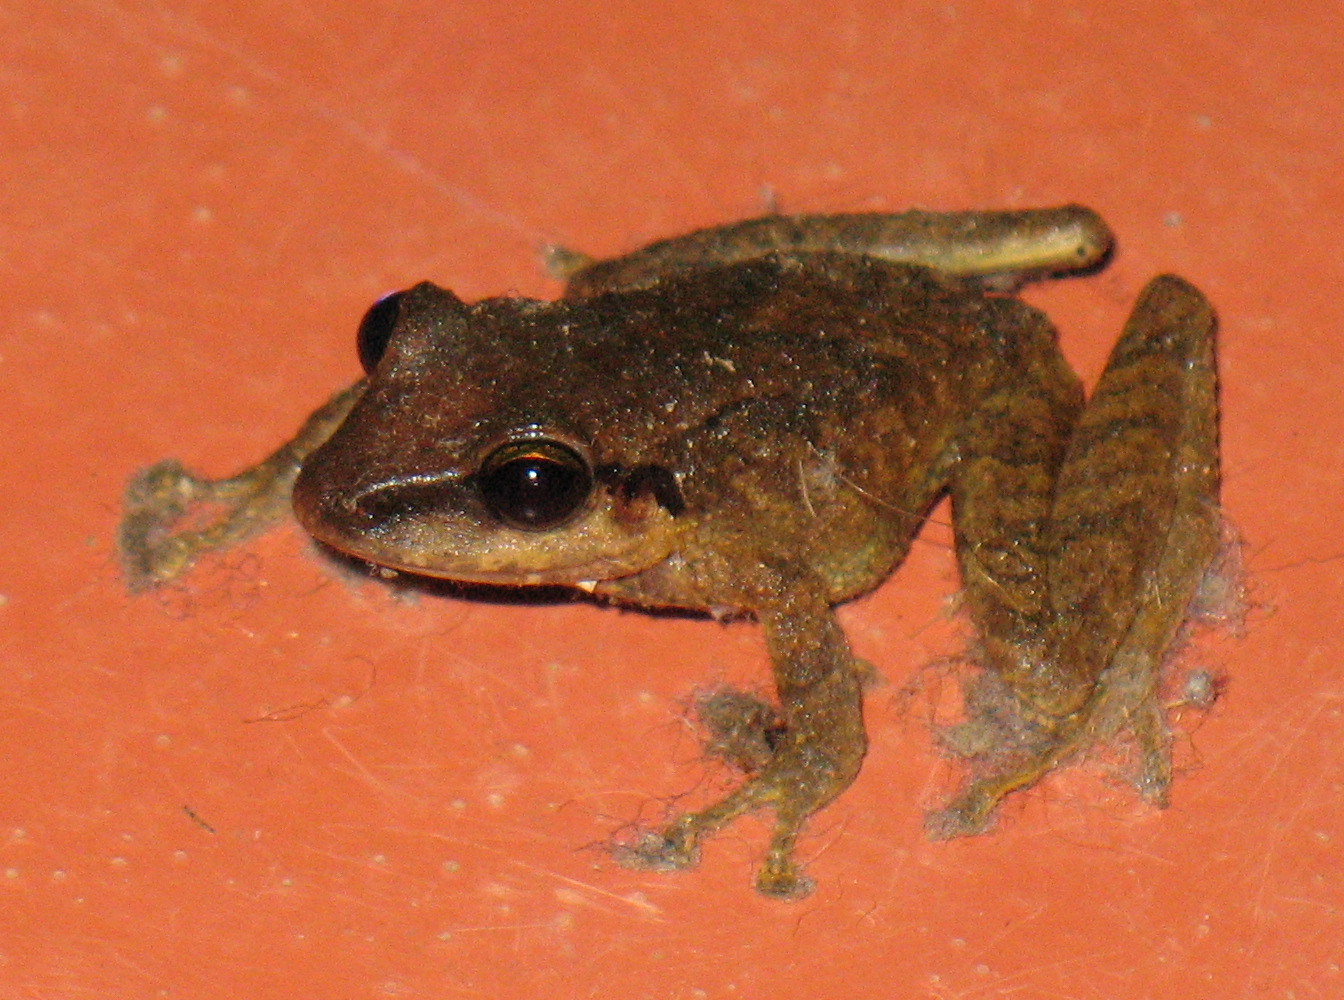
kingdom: Animalia
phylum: Chordata
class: Amphibia
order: Anura
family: Craugastoridae
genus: Pristimantis
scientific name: Pristimantis achatinus
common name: Cachabi robber frog
